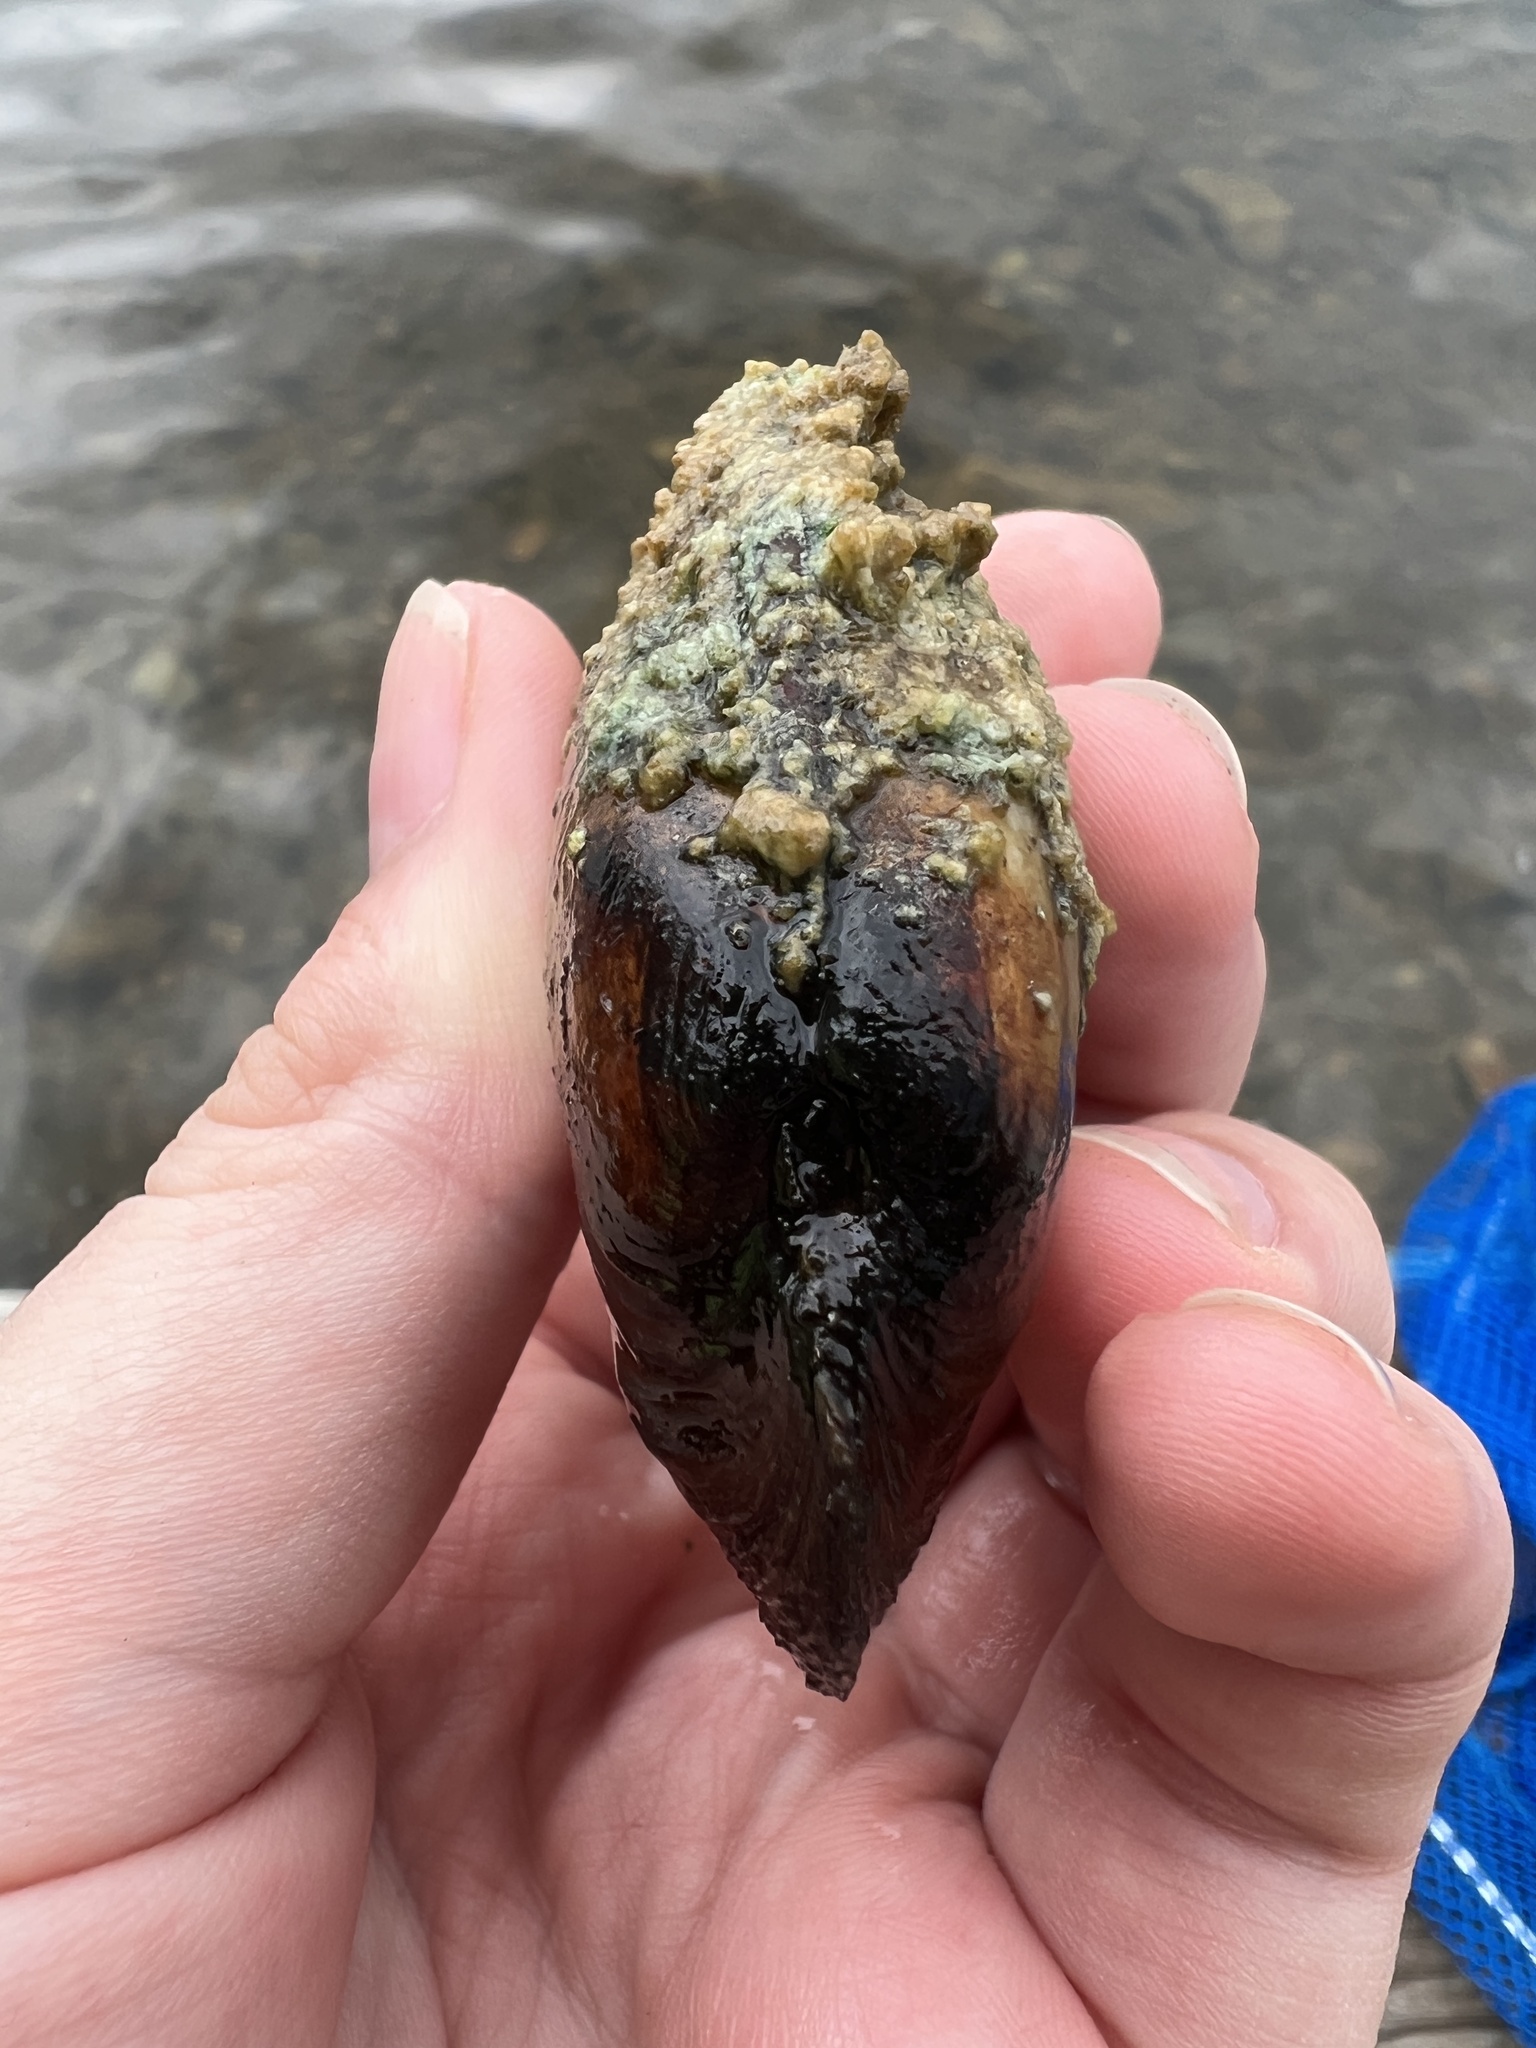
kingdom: Animalia
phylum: Mollusca
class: Bivalvia
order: Unionida
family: Unionidae
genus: Lampsilis
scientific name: Lampsilis siliquoidea
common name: Fatmucket
